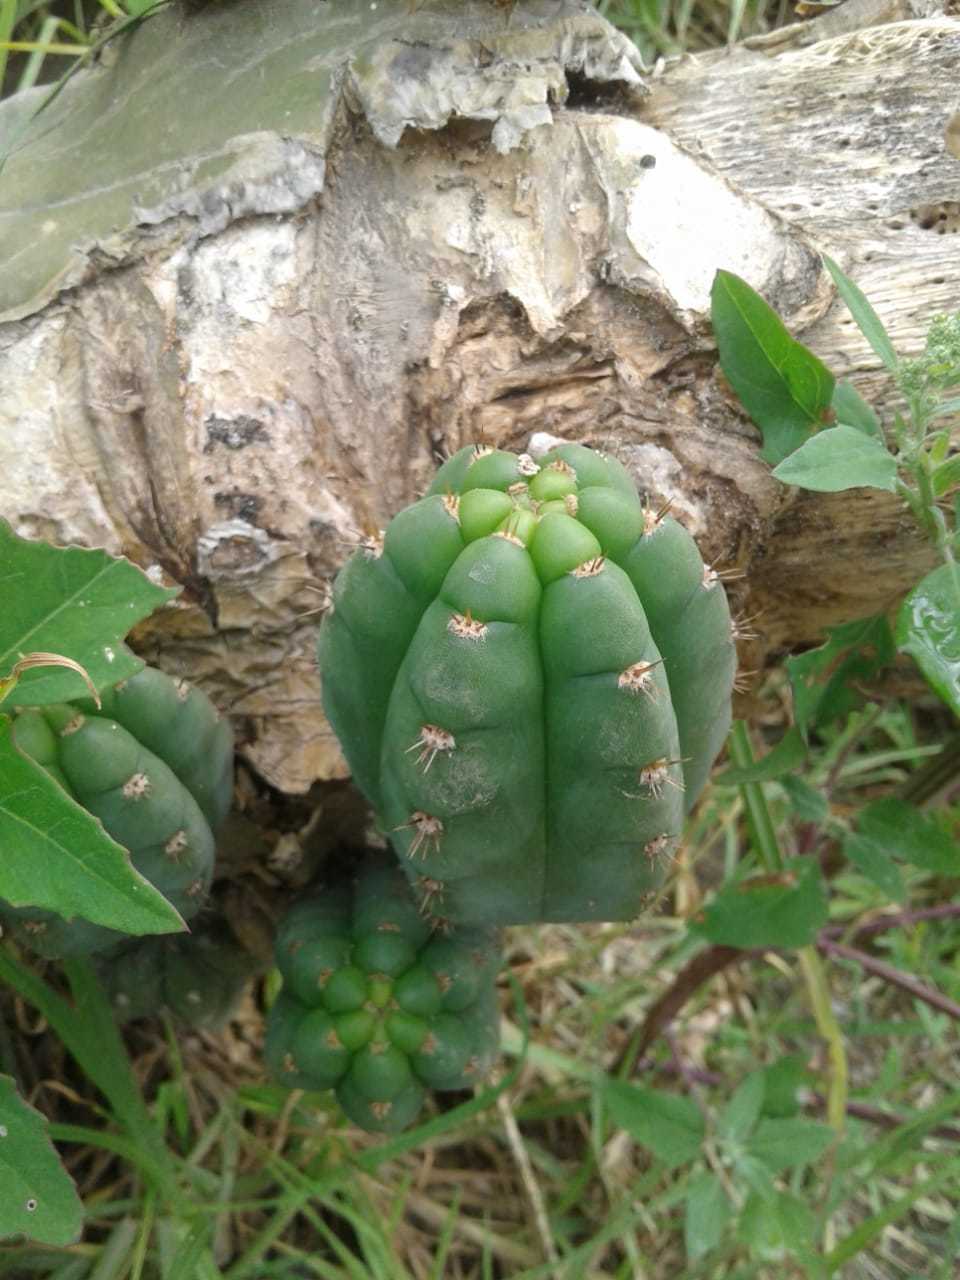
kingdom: Plantae
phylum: Tracheophyta
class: Magnoliopsida
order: Caryophyllales
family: Cactaceae
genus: Trichocereus
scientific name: Trichocereus macrogonus
